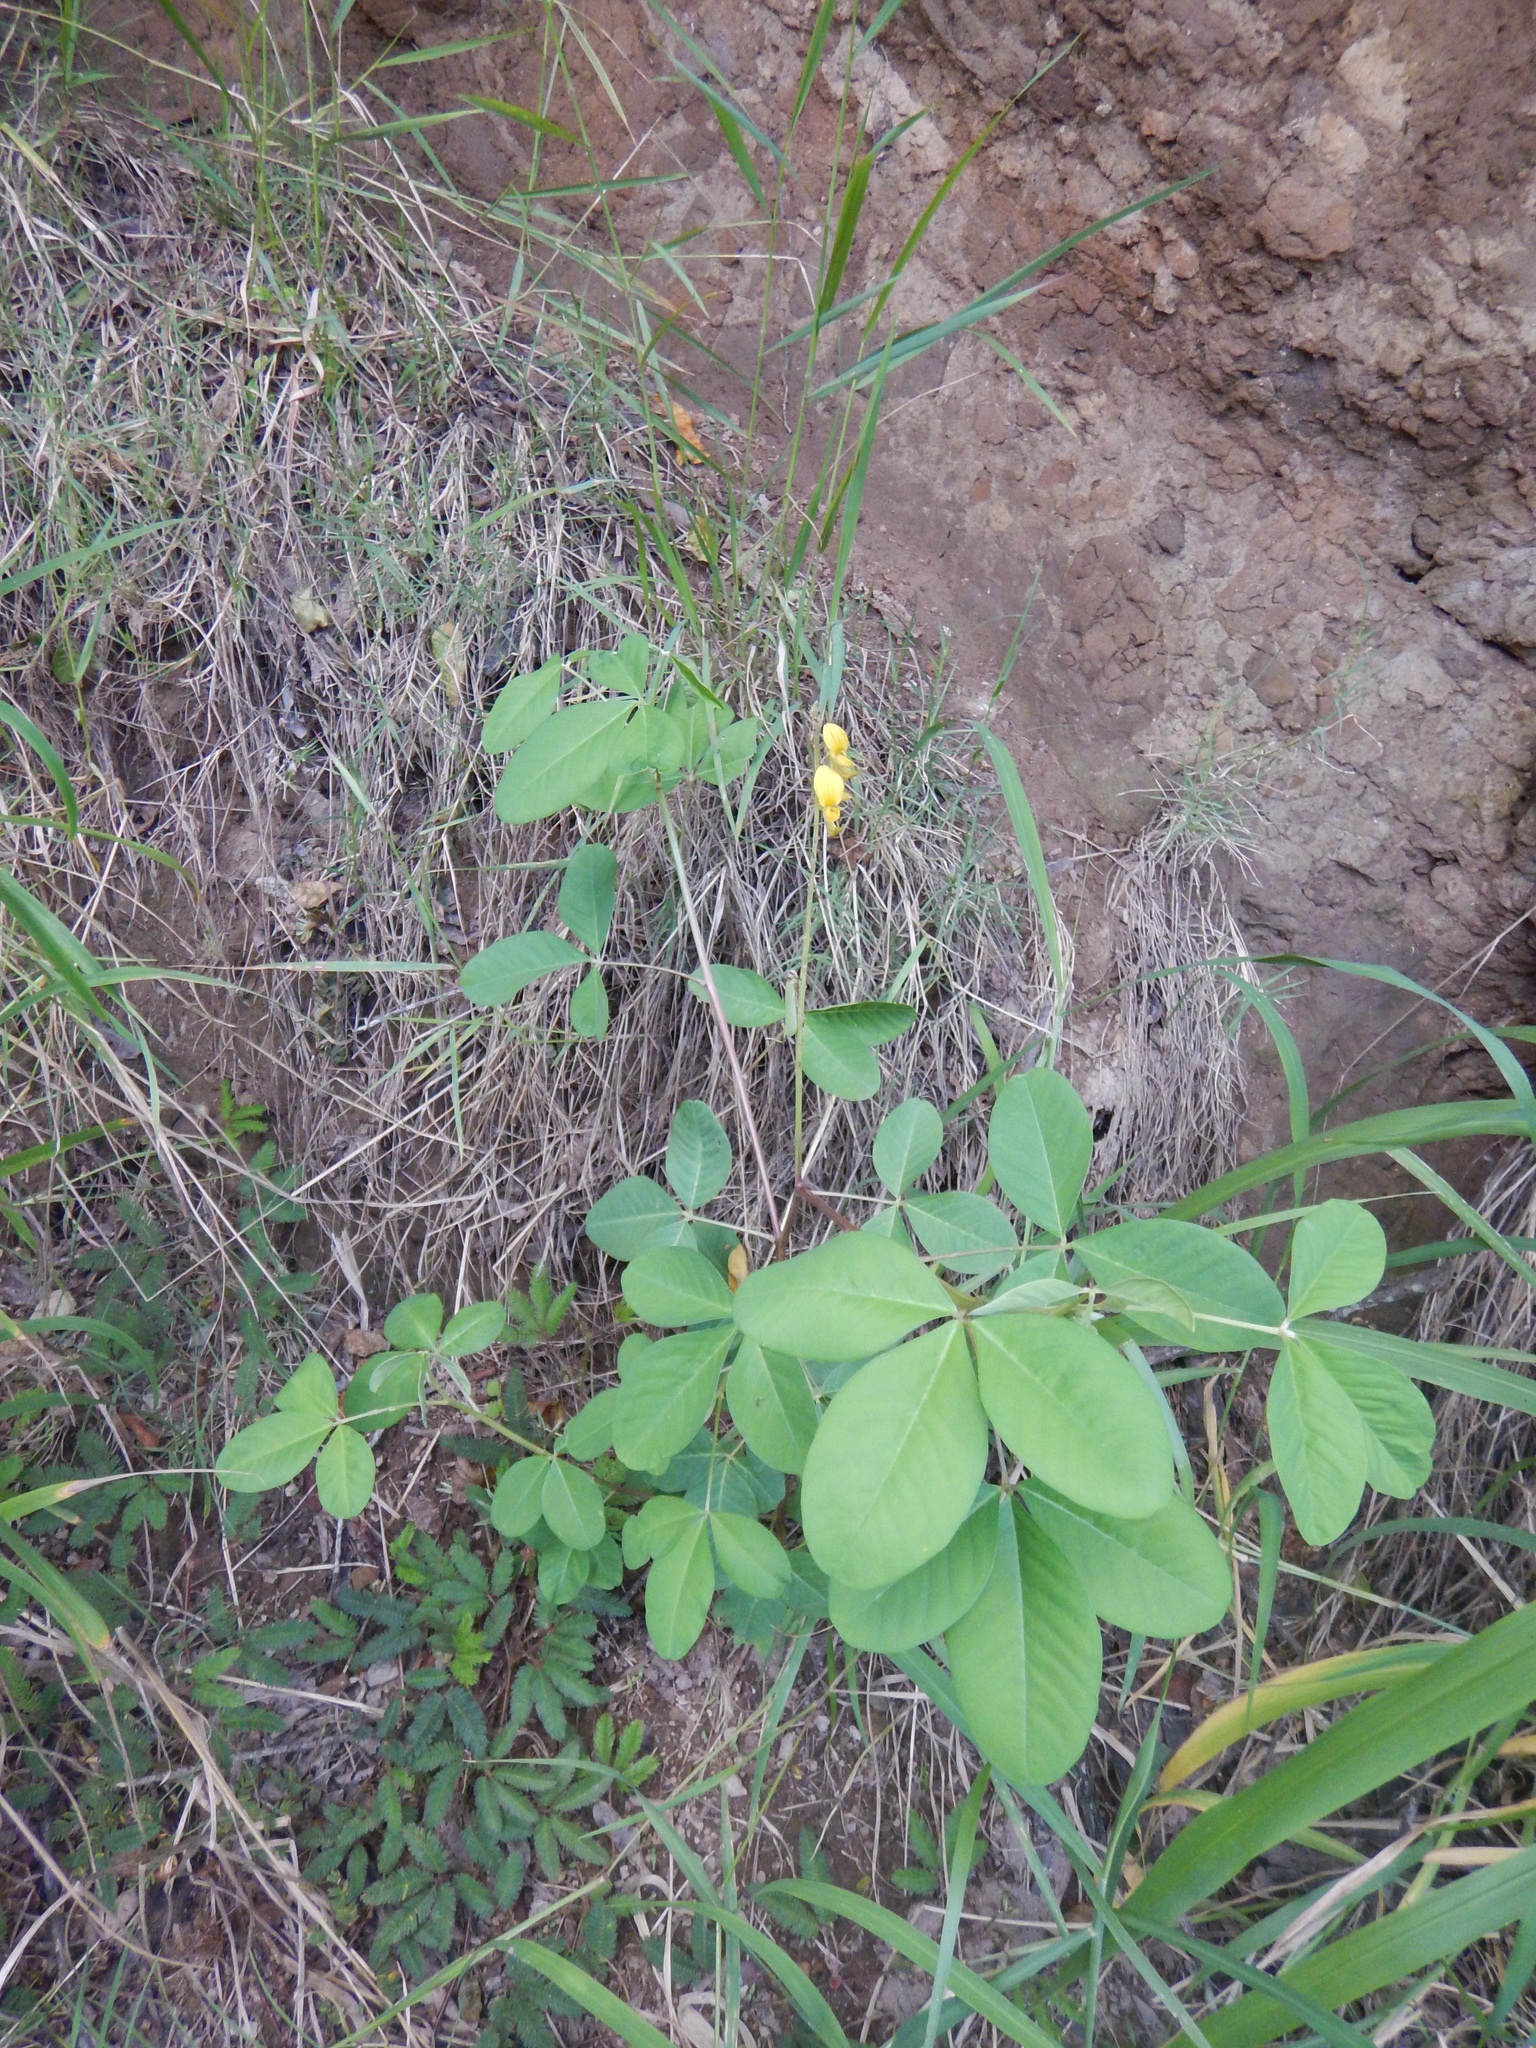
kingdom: Plantae
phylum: Tracheophyta
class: Magnoliopsida
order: Fabales
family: Fabaceae
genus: Crotalaria
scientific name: Crotalaria pallida
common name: Smooth rattlebox
